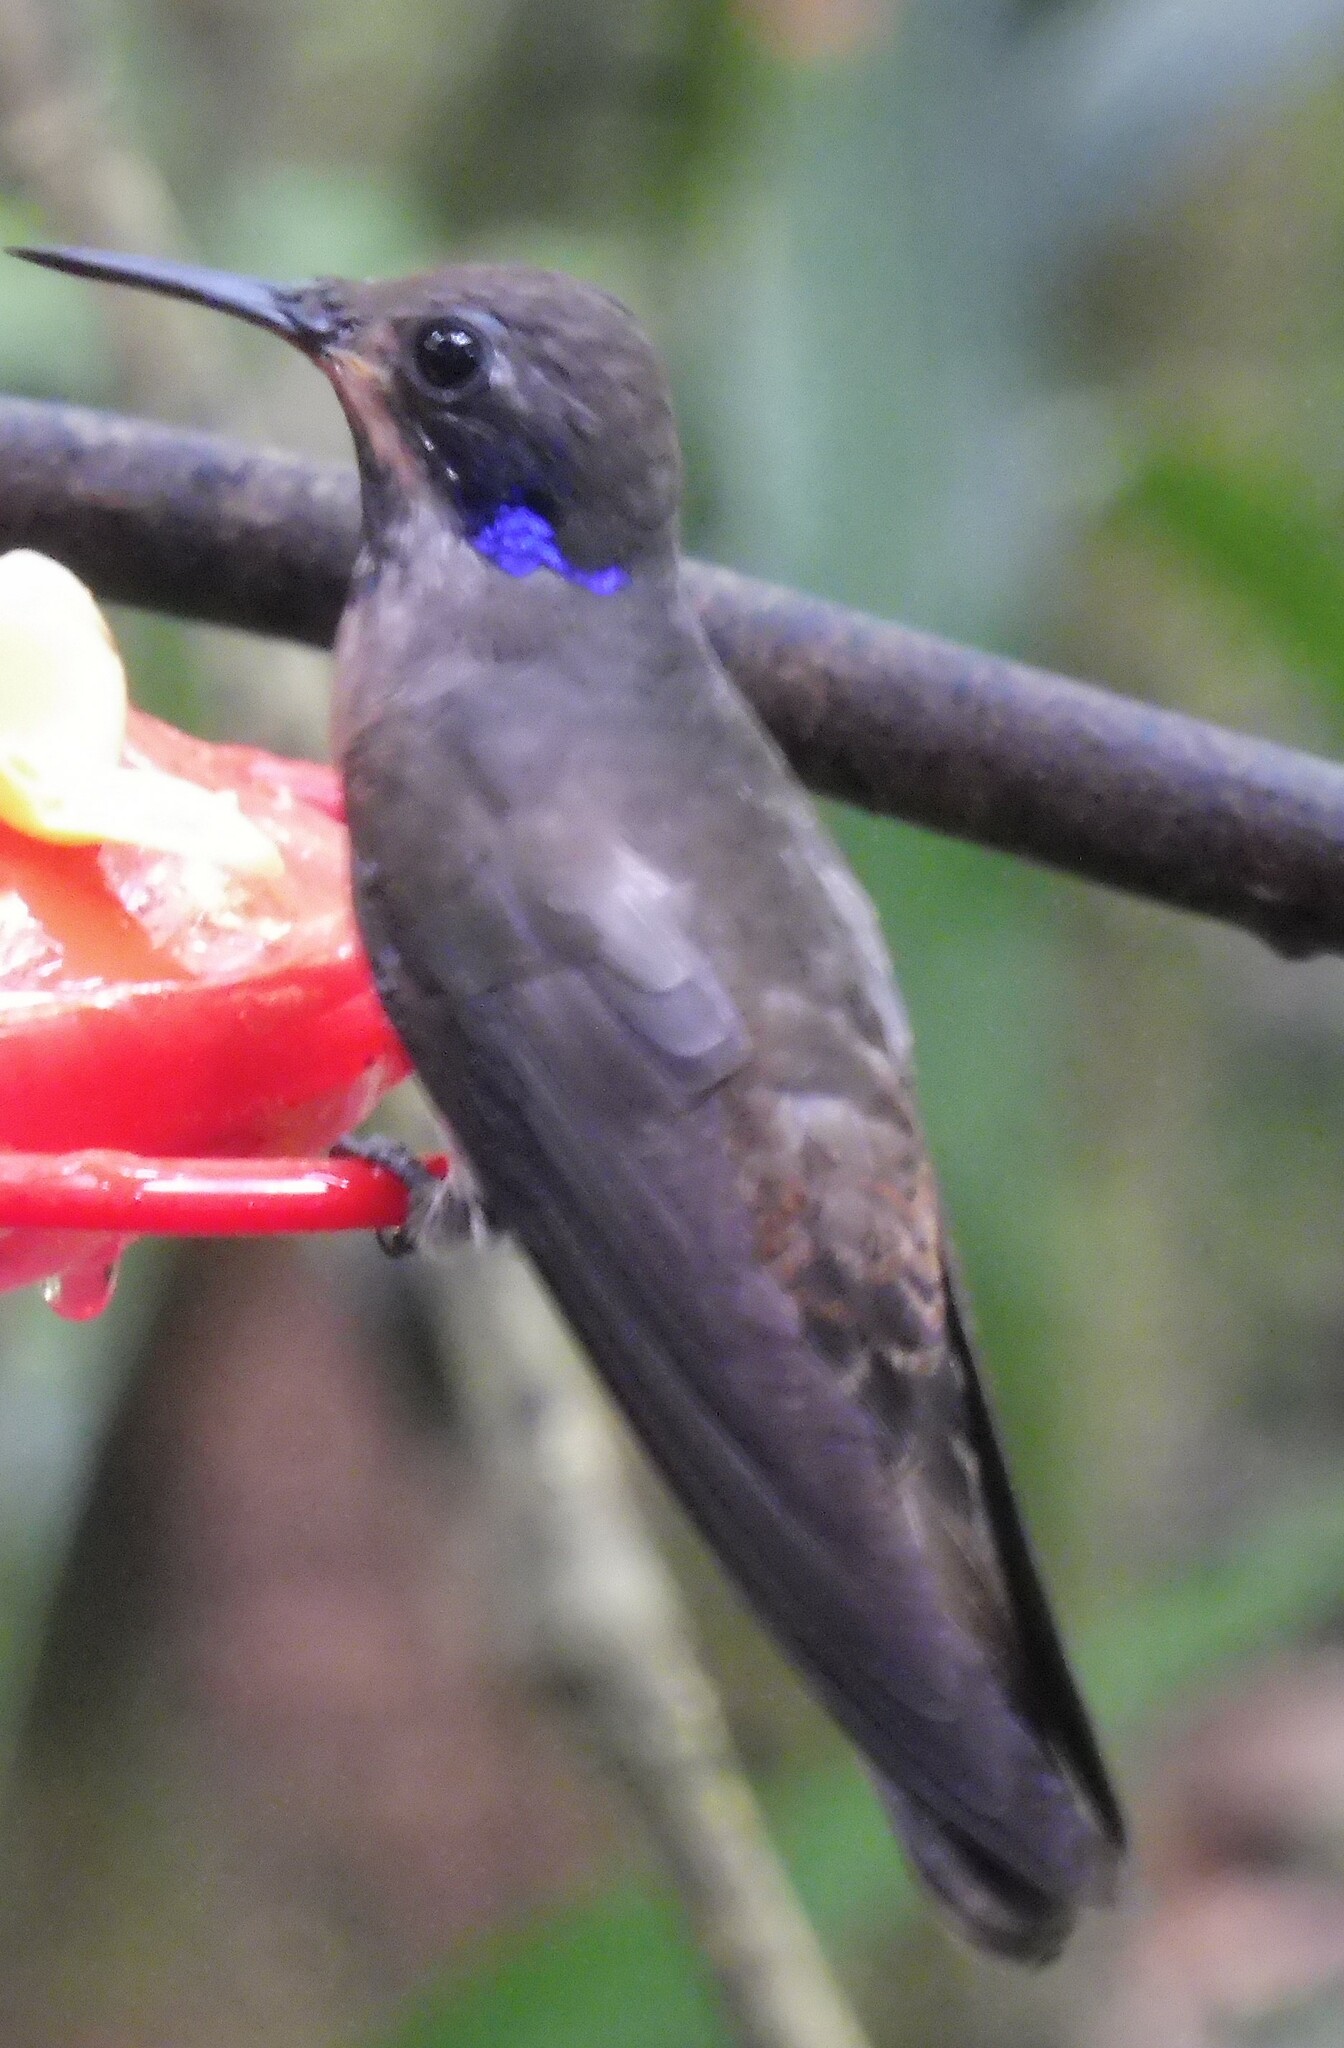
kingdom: Animalia
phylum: Chordata
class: Aves
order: Apodiformes
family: Trochilidae
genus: Colibri
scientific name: Colibri delphinae
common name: Brown violetear
